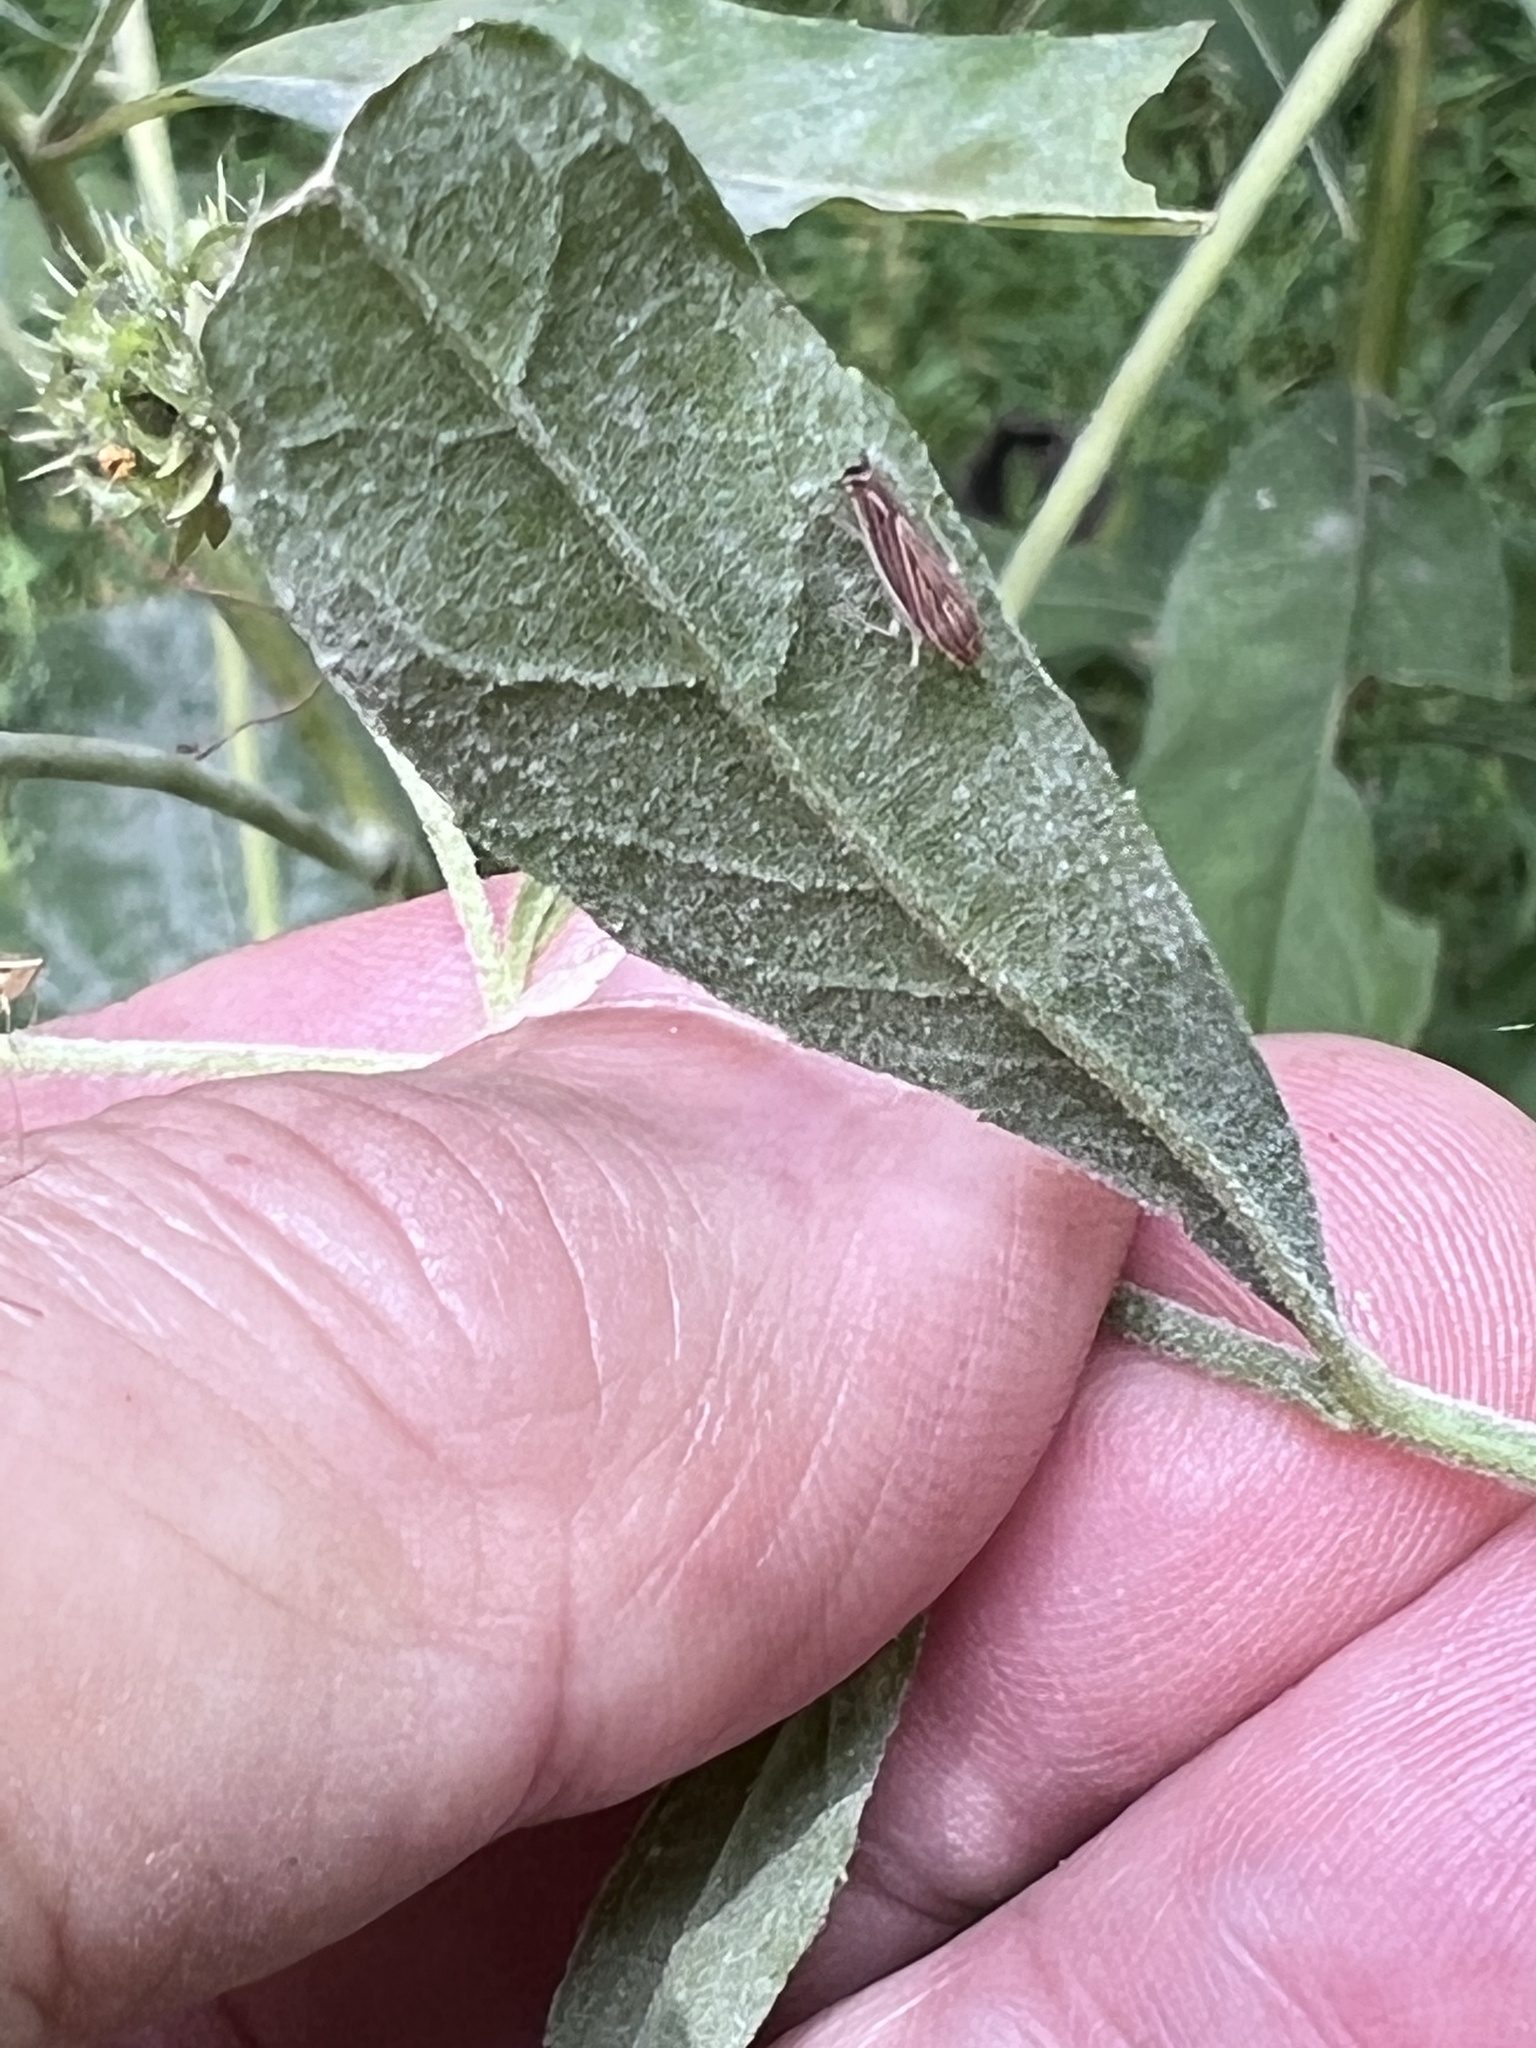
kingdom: Animalia
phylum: Arthropoda
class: Insecta
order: Hemiptera
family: Cicadellidae
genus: Sibovia
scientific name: Sibovia occatoria
